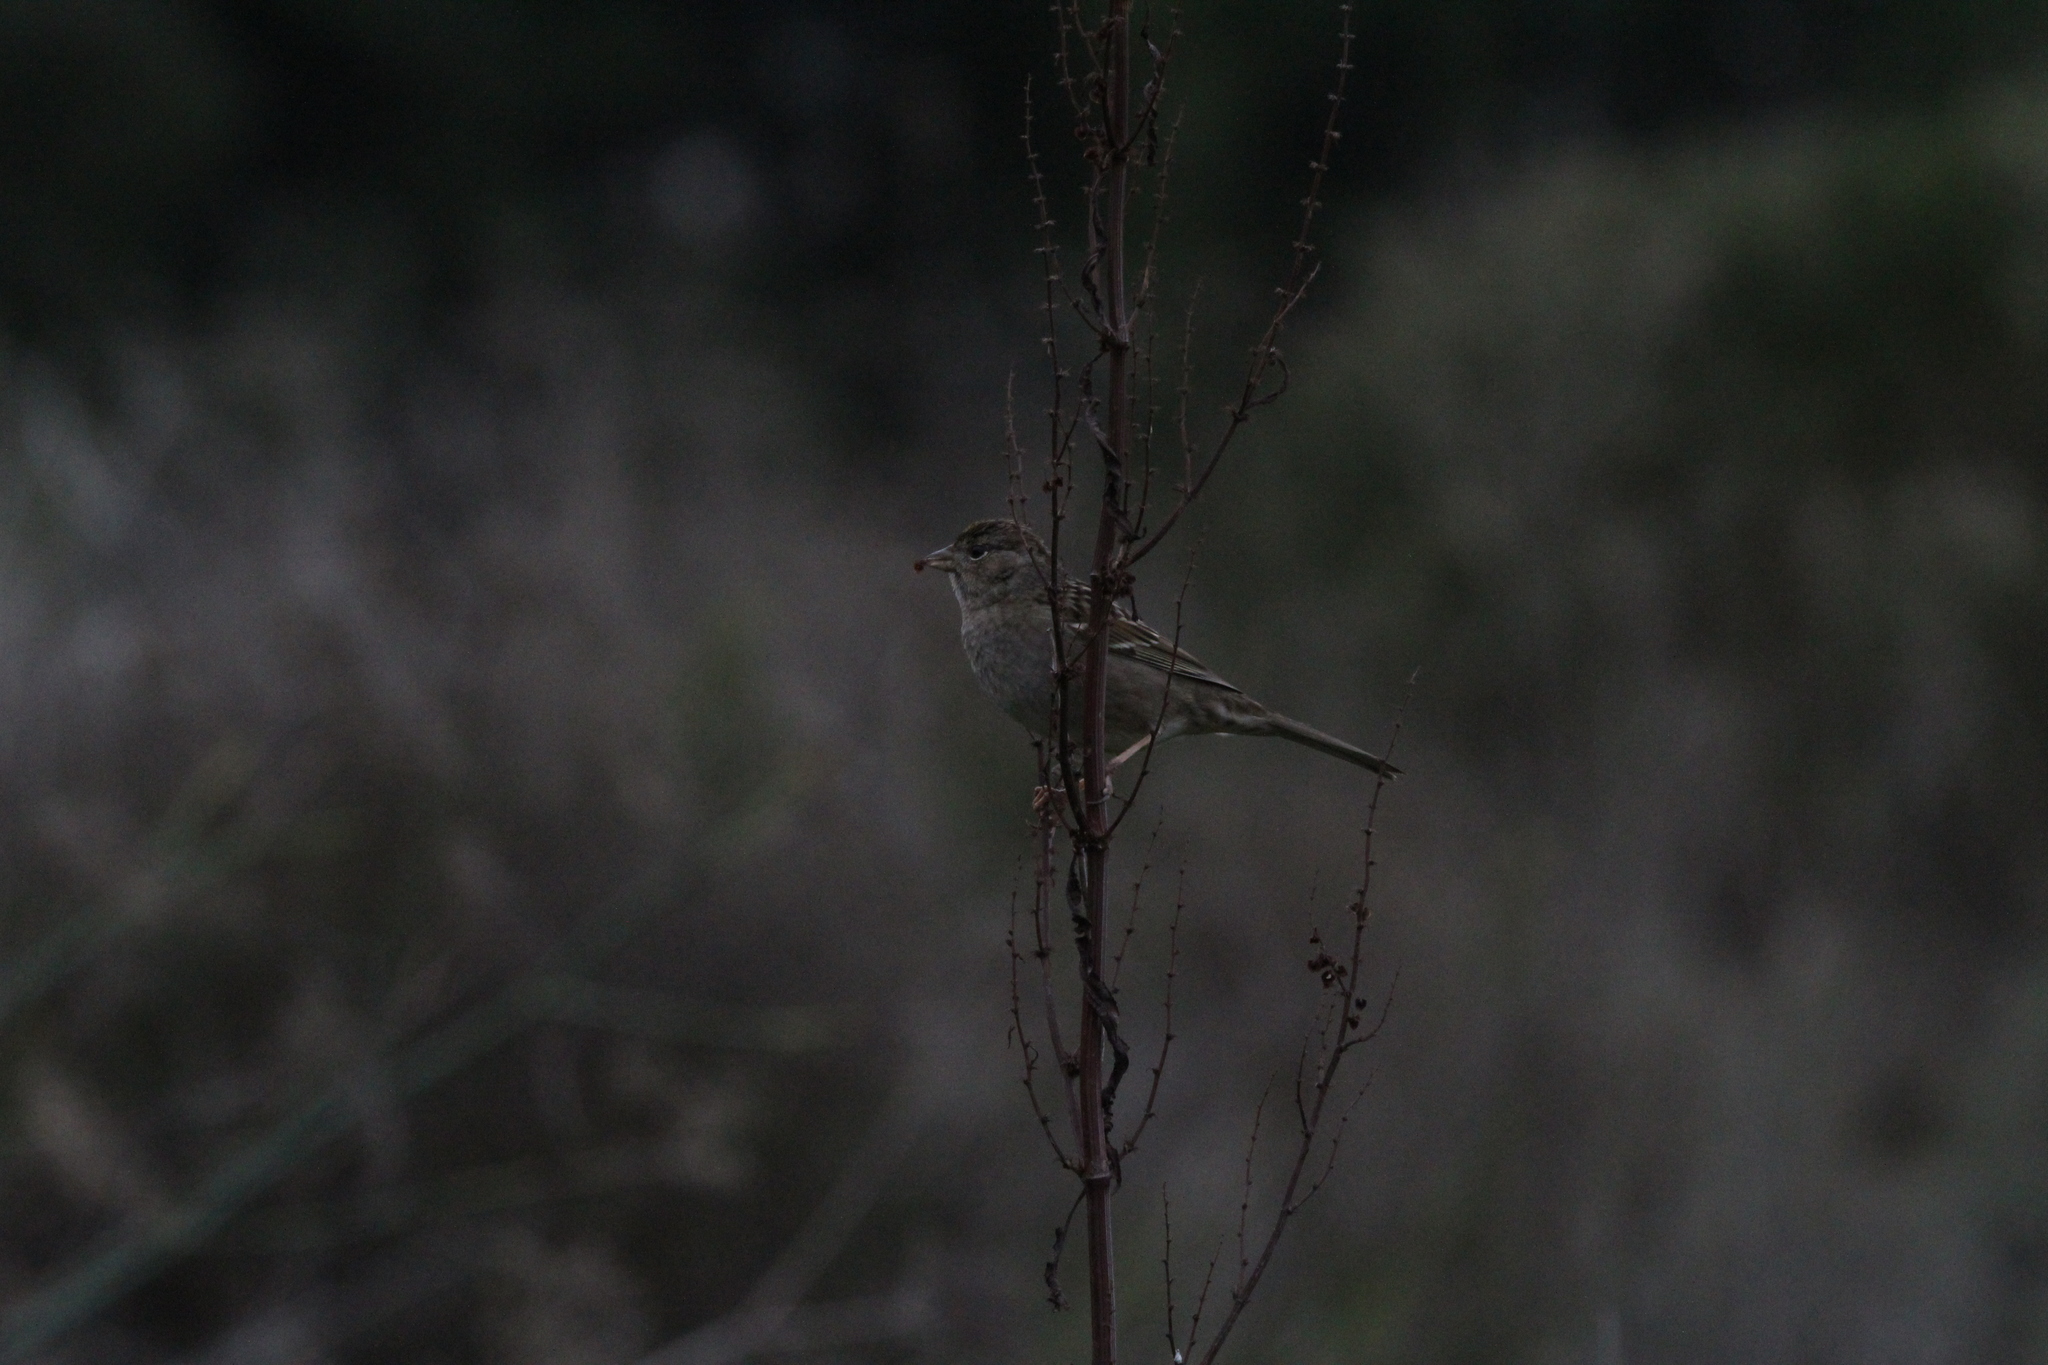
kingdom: Animalia
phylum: Chordata
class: Aves
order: Passeriformes
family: Passerellidae
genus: Zonotrichia
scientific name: Zonotrichia atricapilla
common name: Golden-crowned sparrow
